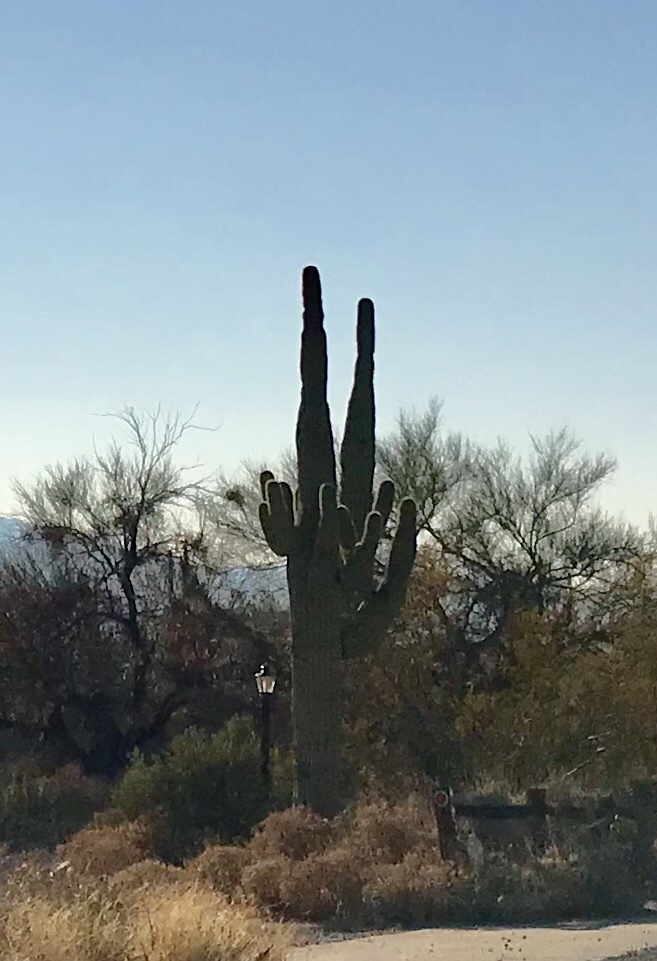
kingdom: Plantae
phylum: Tracheophyta
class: Magnoliopsida
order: Caryophyllales
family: Cactaceae
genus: Carnegiea
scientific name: Carnegiea gigantea
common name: Saguaro
